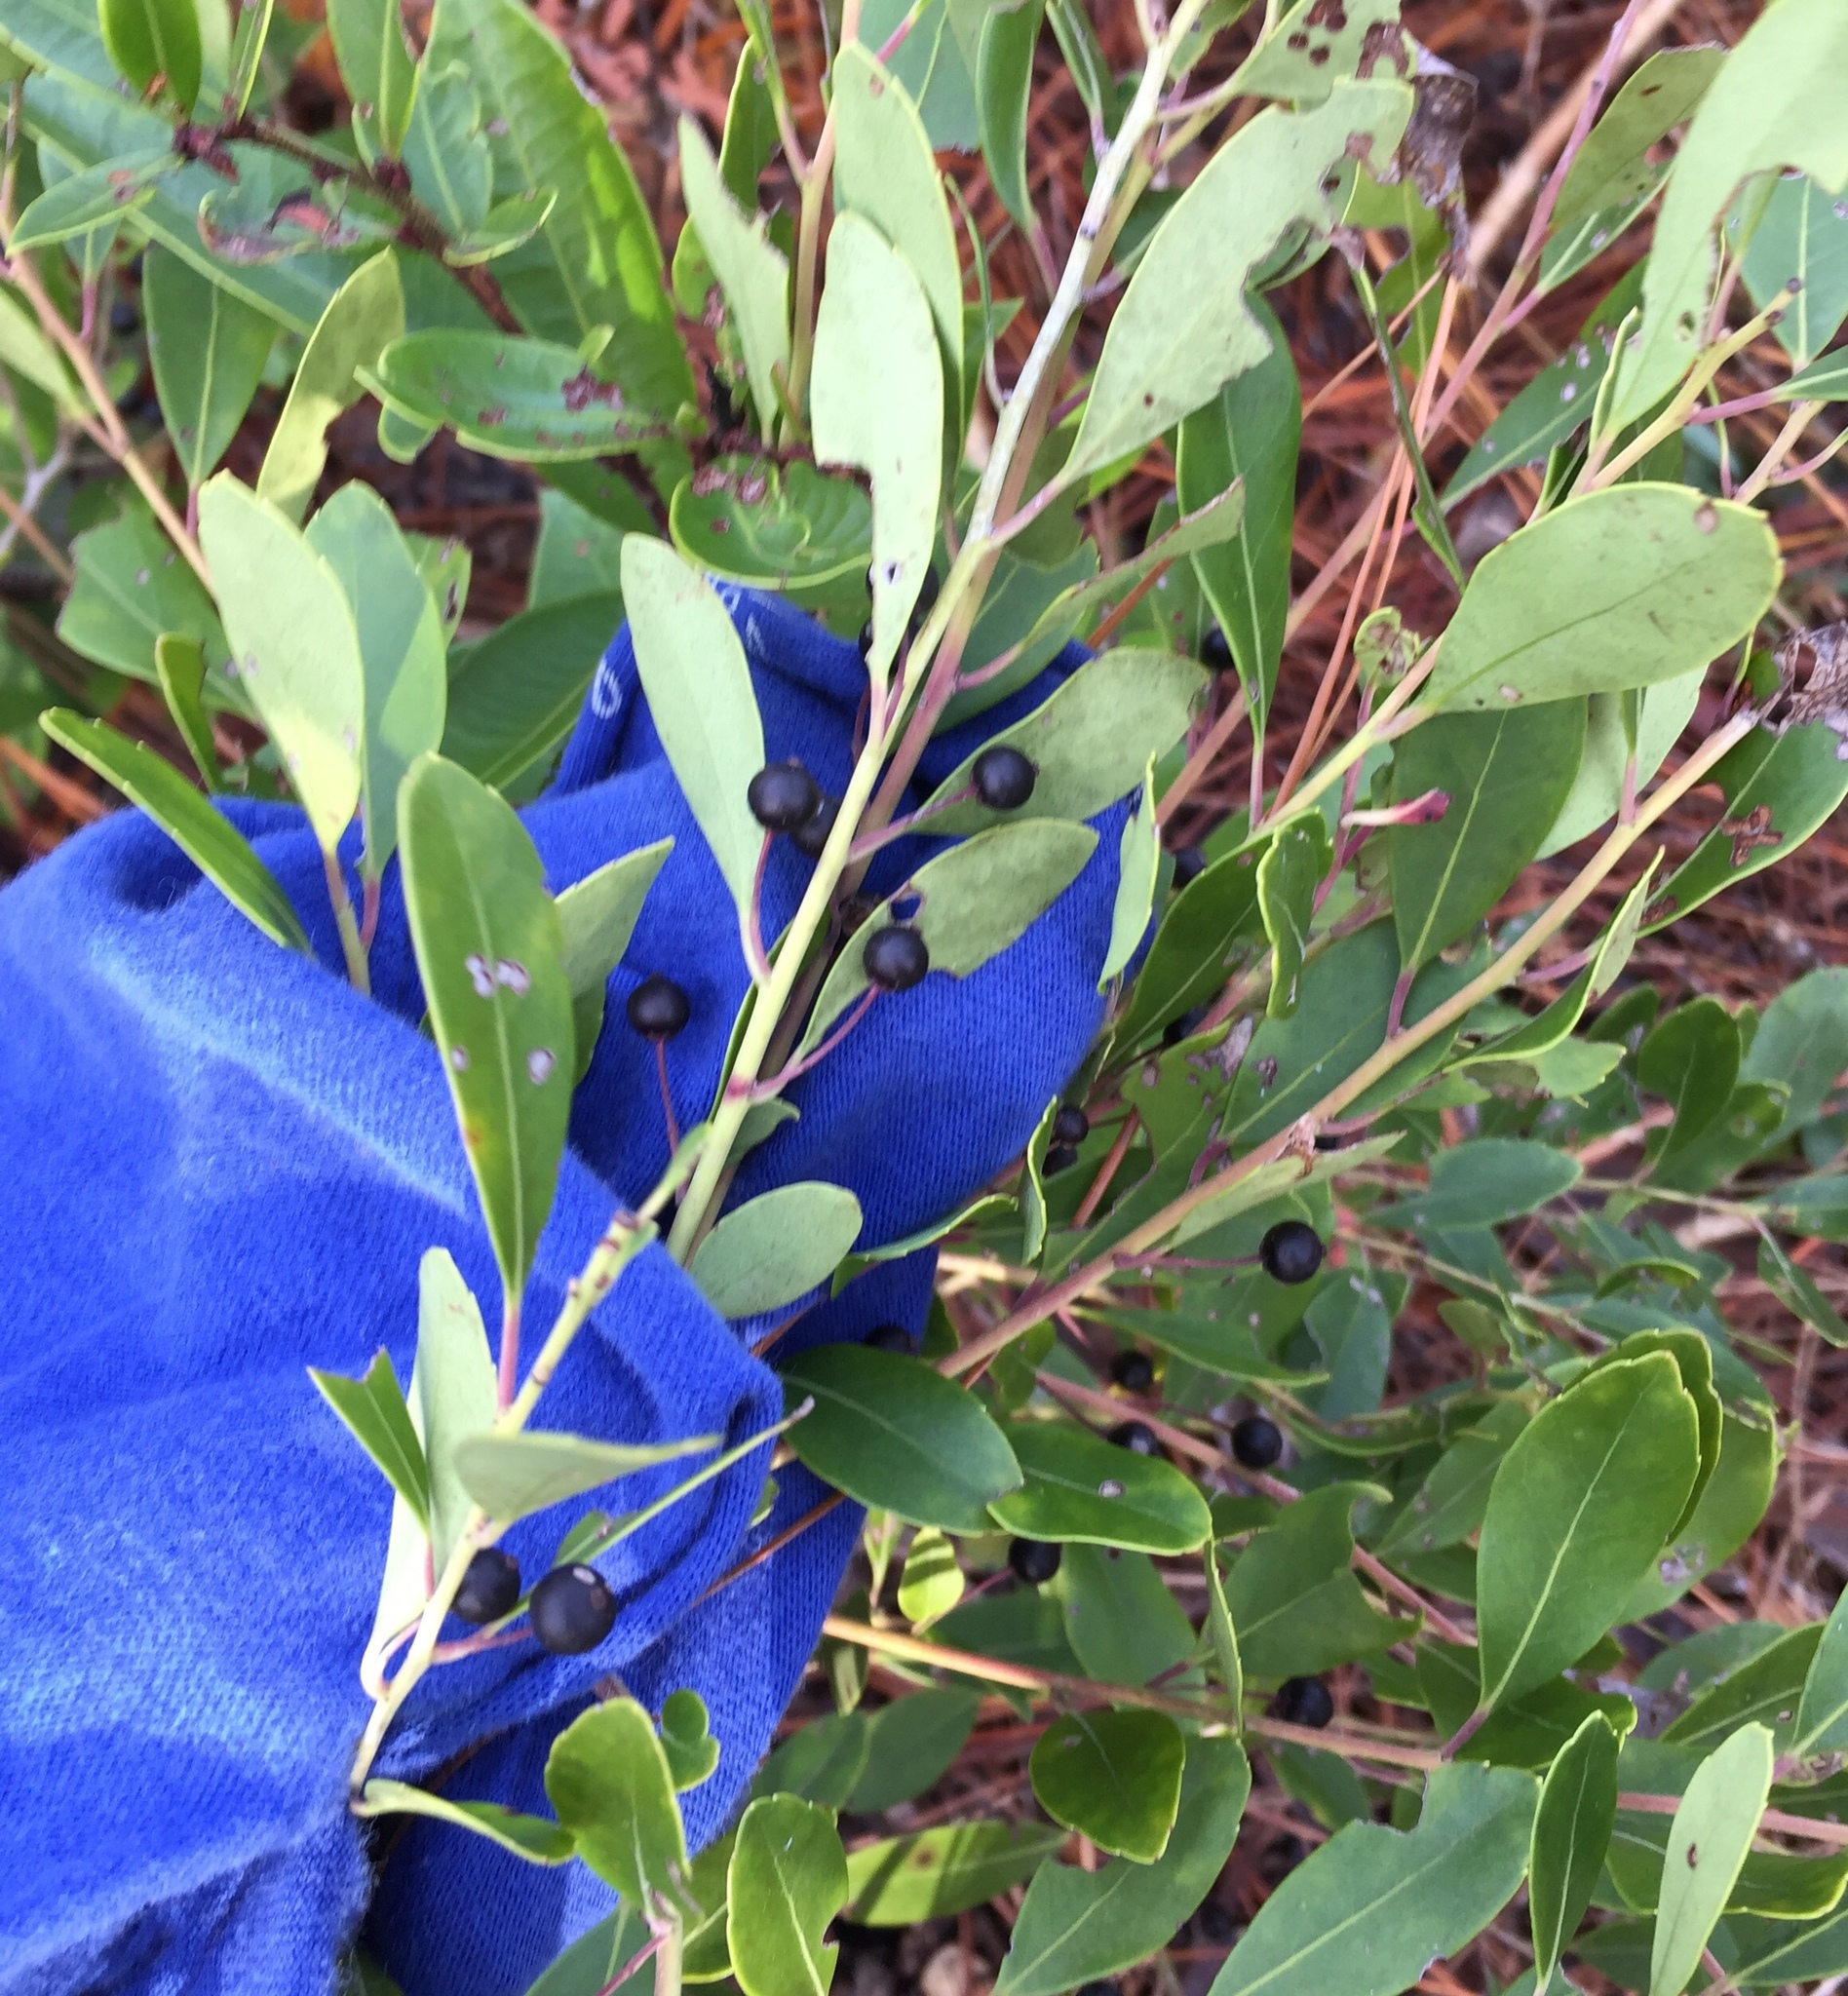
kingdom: Plantae
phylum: Tracheophyta
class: Magnoliopsida
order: Aquifoliales
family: Aquifoliaceae
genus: Ilex
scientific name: Ilex glabra
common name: Bitter gallberry
